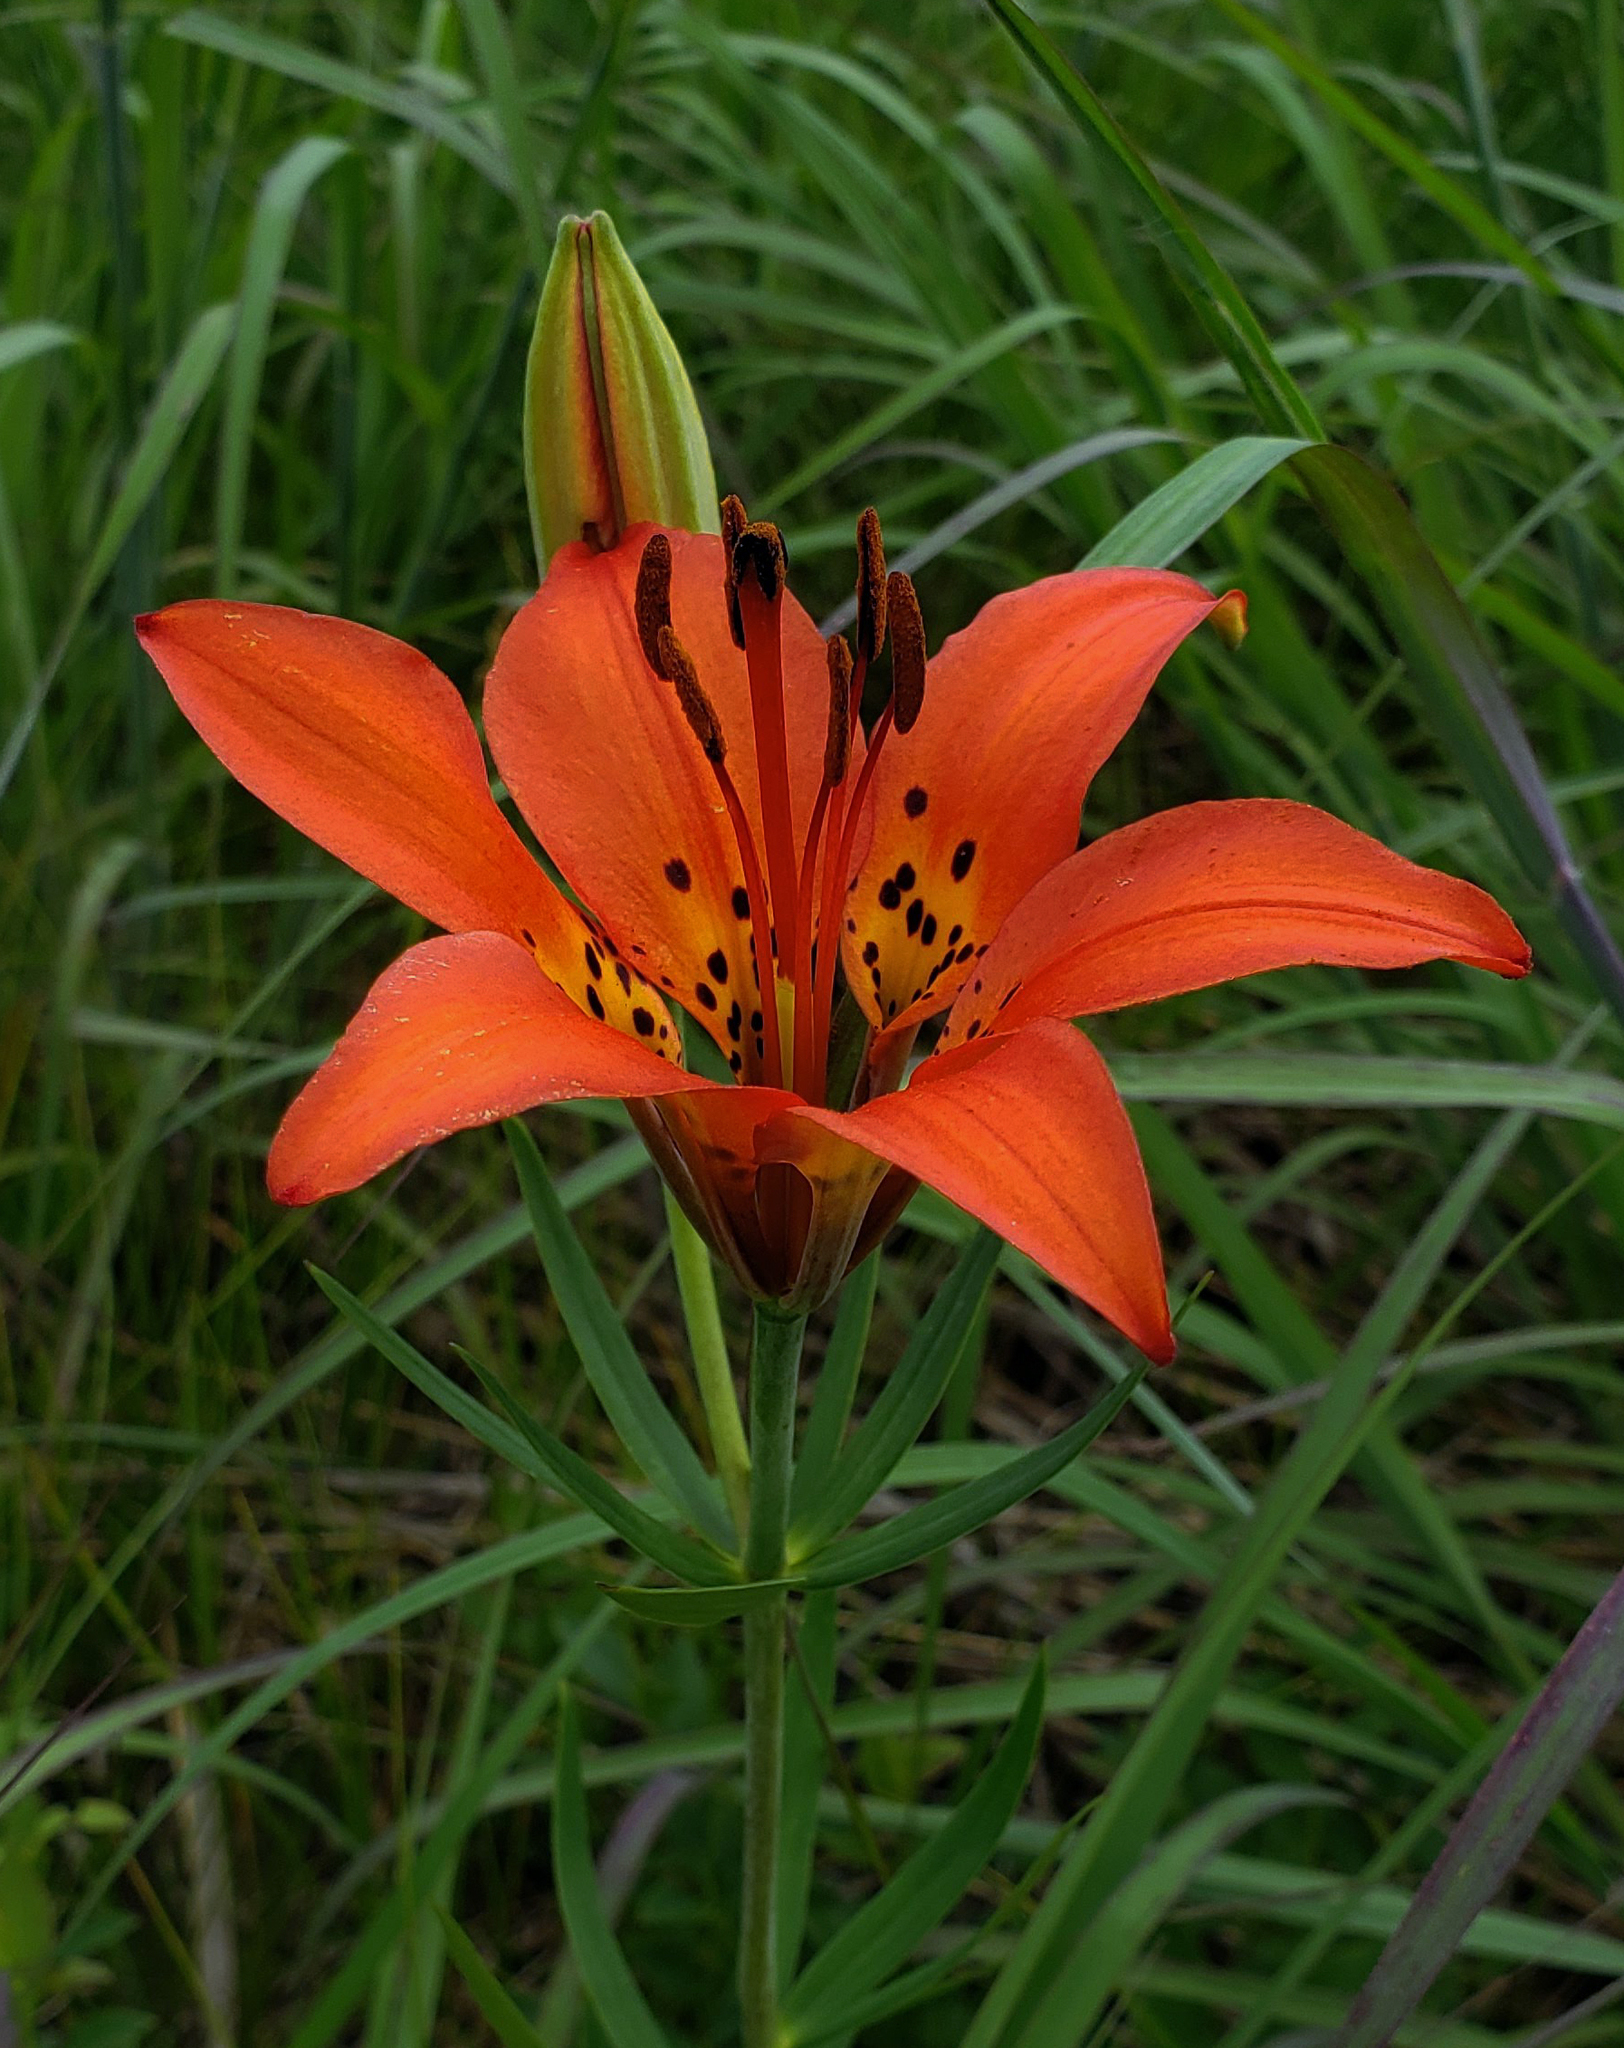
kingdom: Plantae
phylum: Tracheophyta
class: Liliopsida
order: Liliales
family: Liliaceae
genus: Lilium
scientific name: Lilium philadelphicum
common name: Red lily
